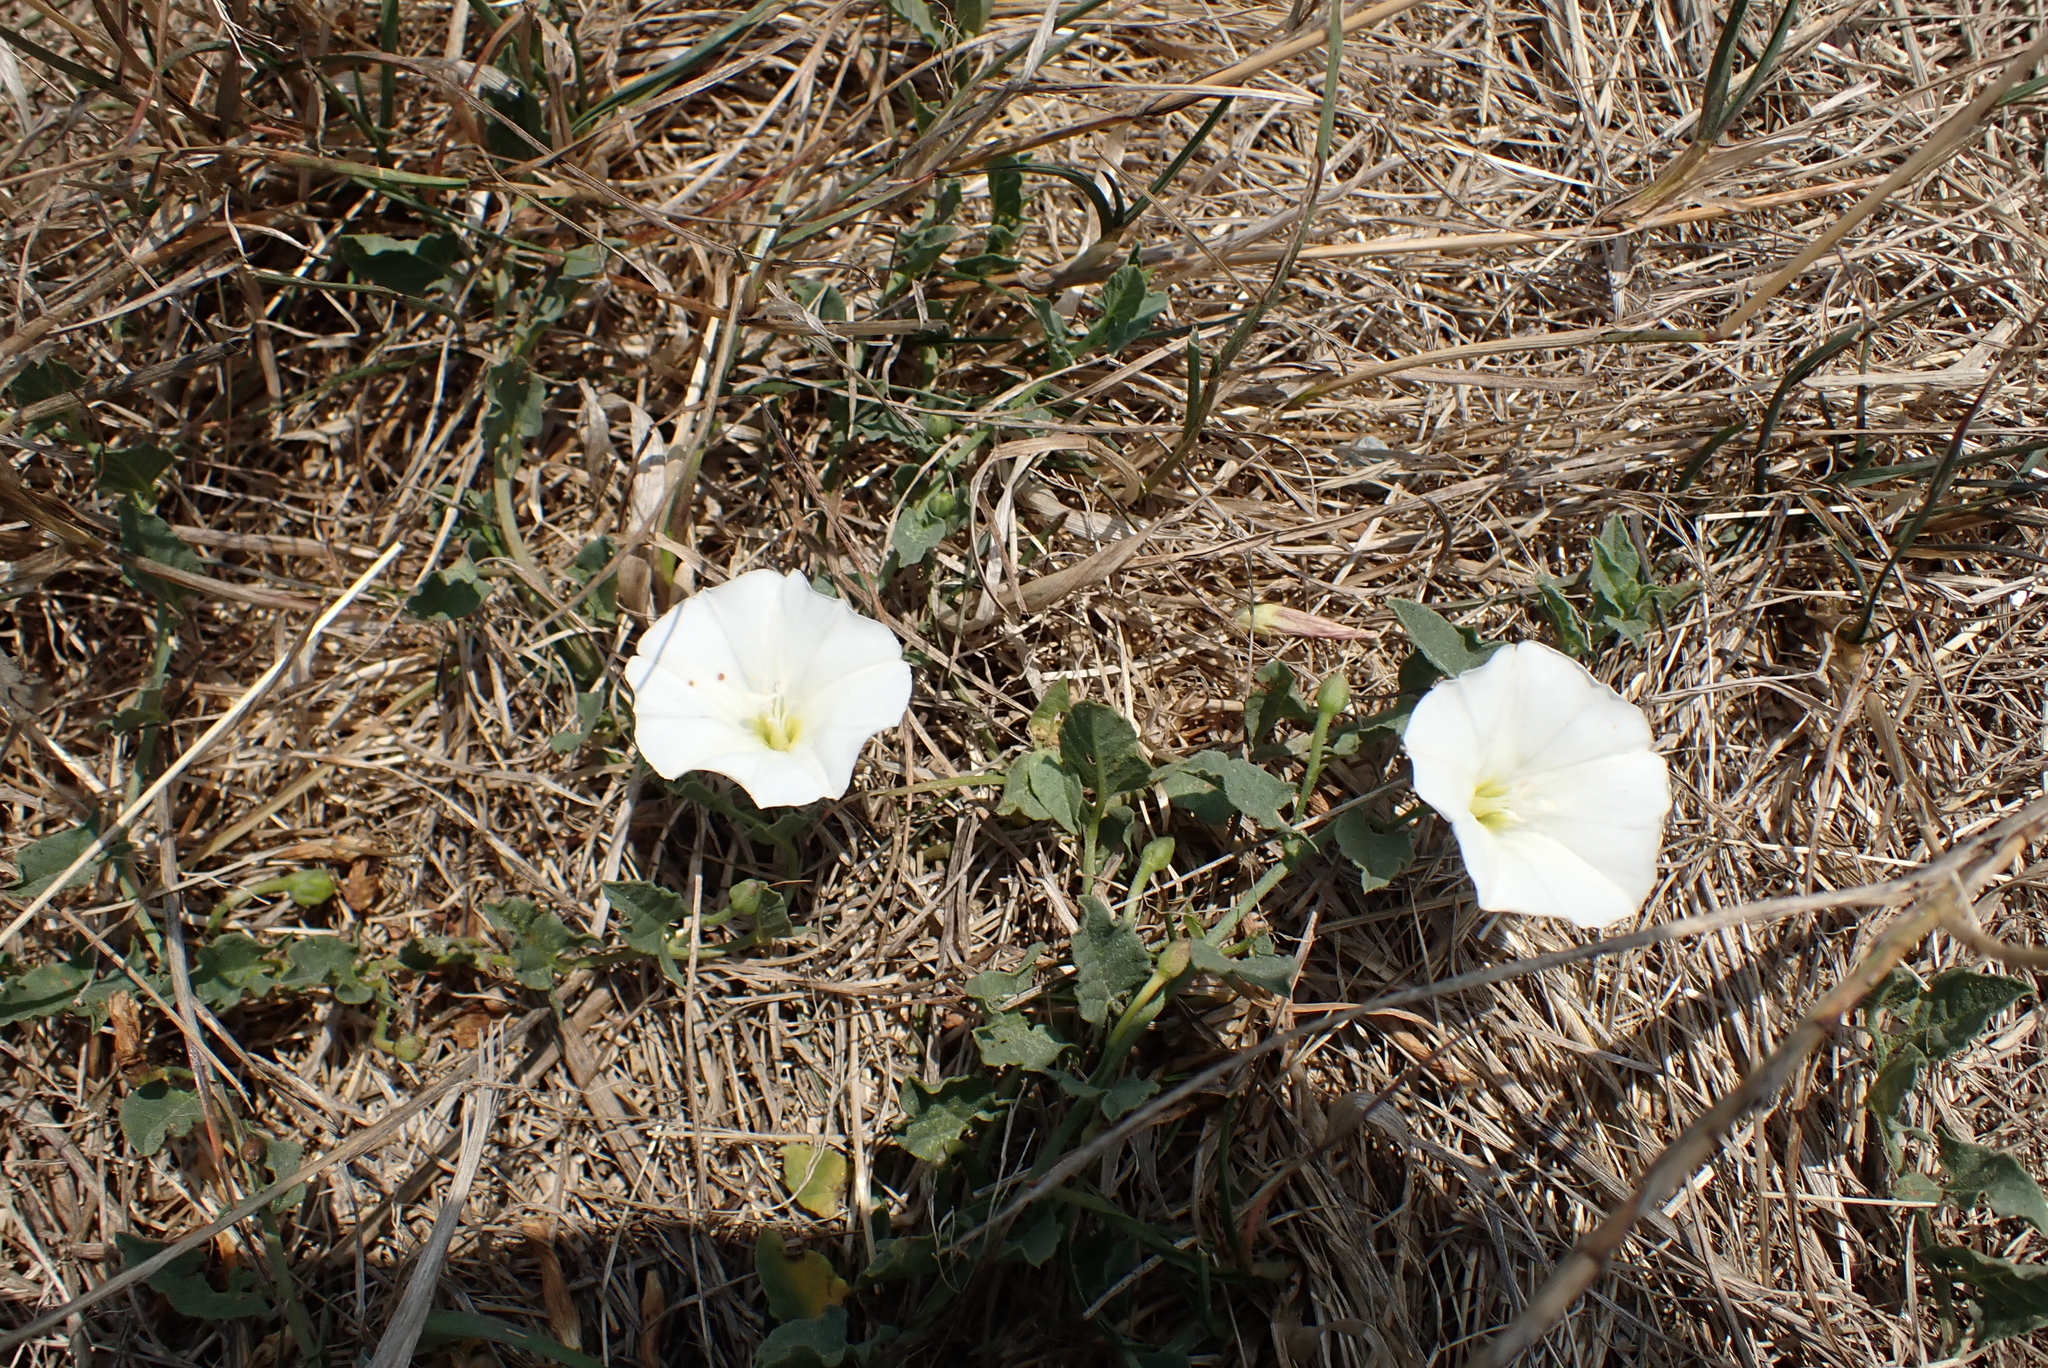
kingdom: Plantae
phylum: Tracheophyta
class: Magnoliopsida
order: Solanales
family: Convolvulaceae
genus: Convolvulus
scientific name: Convolvulus arvensis
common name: Field bindweed
